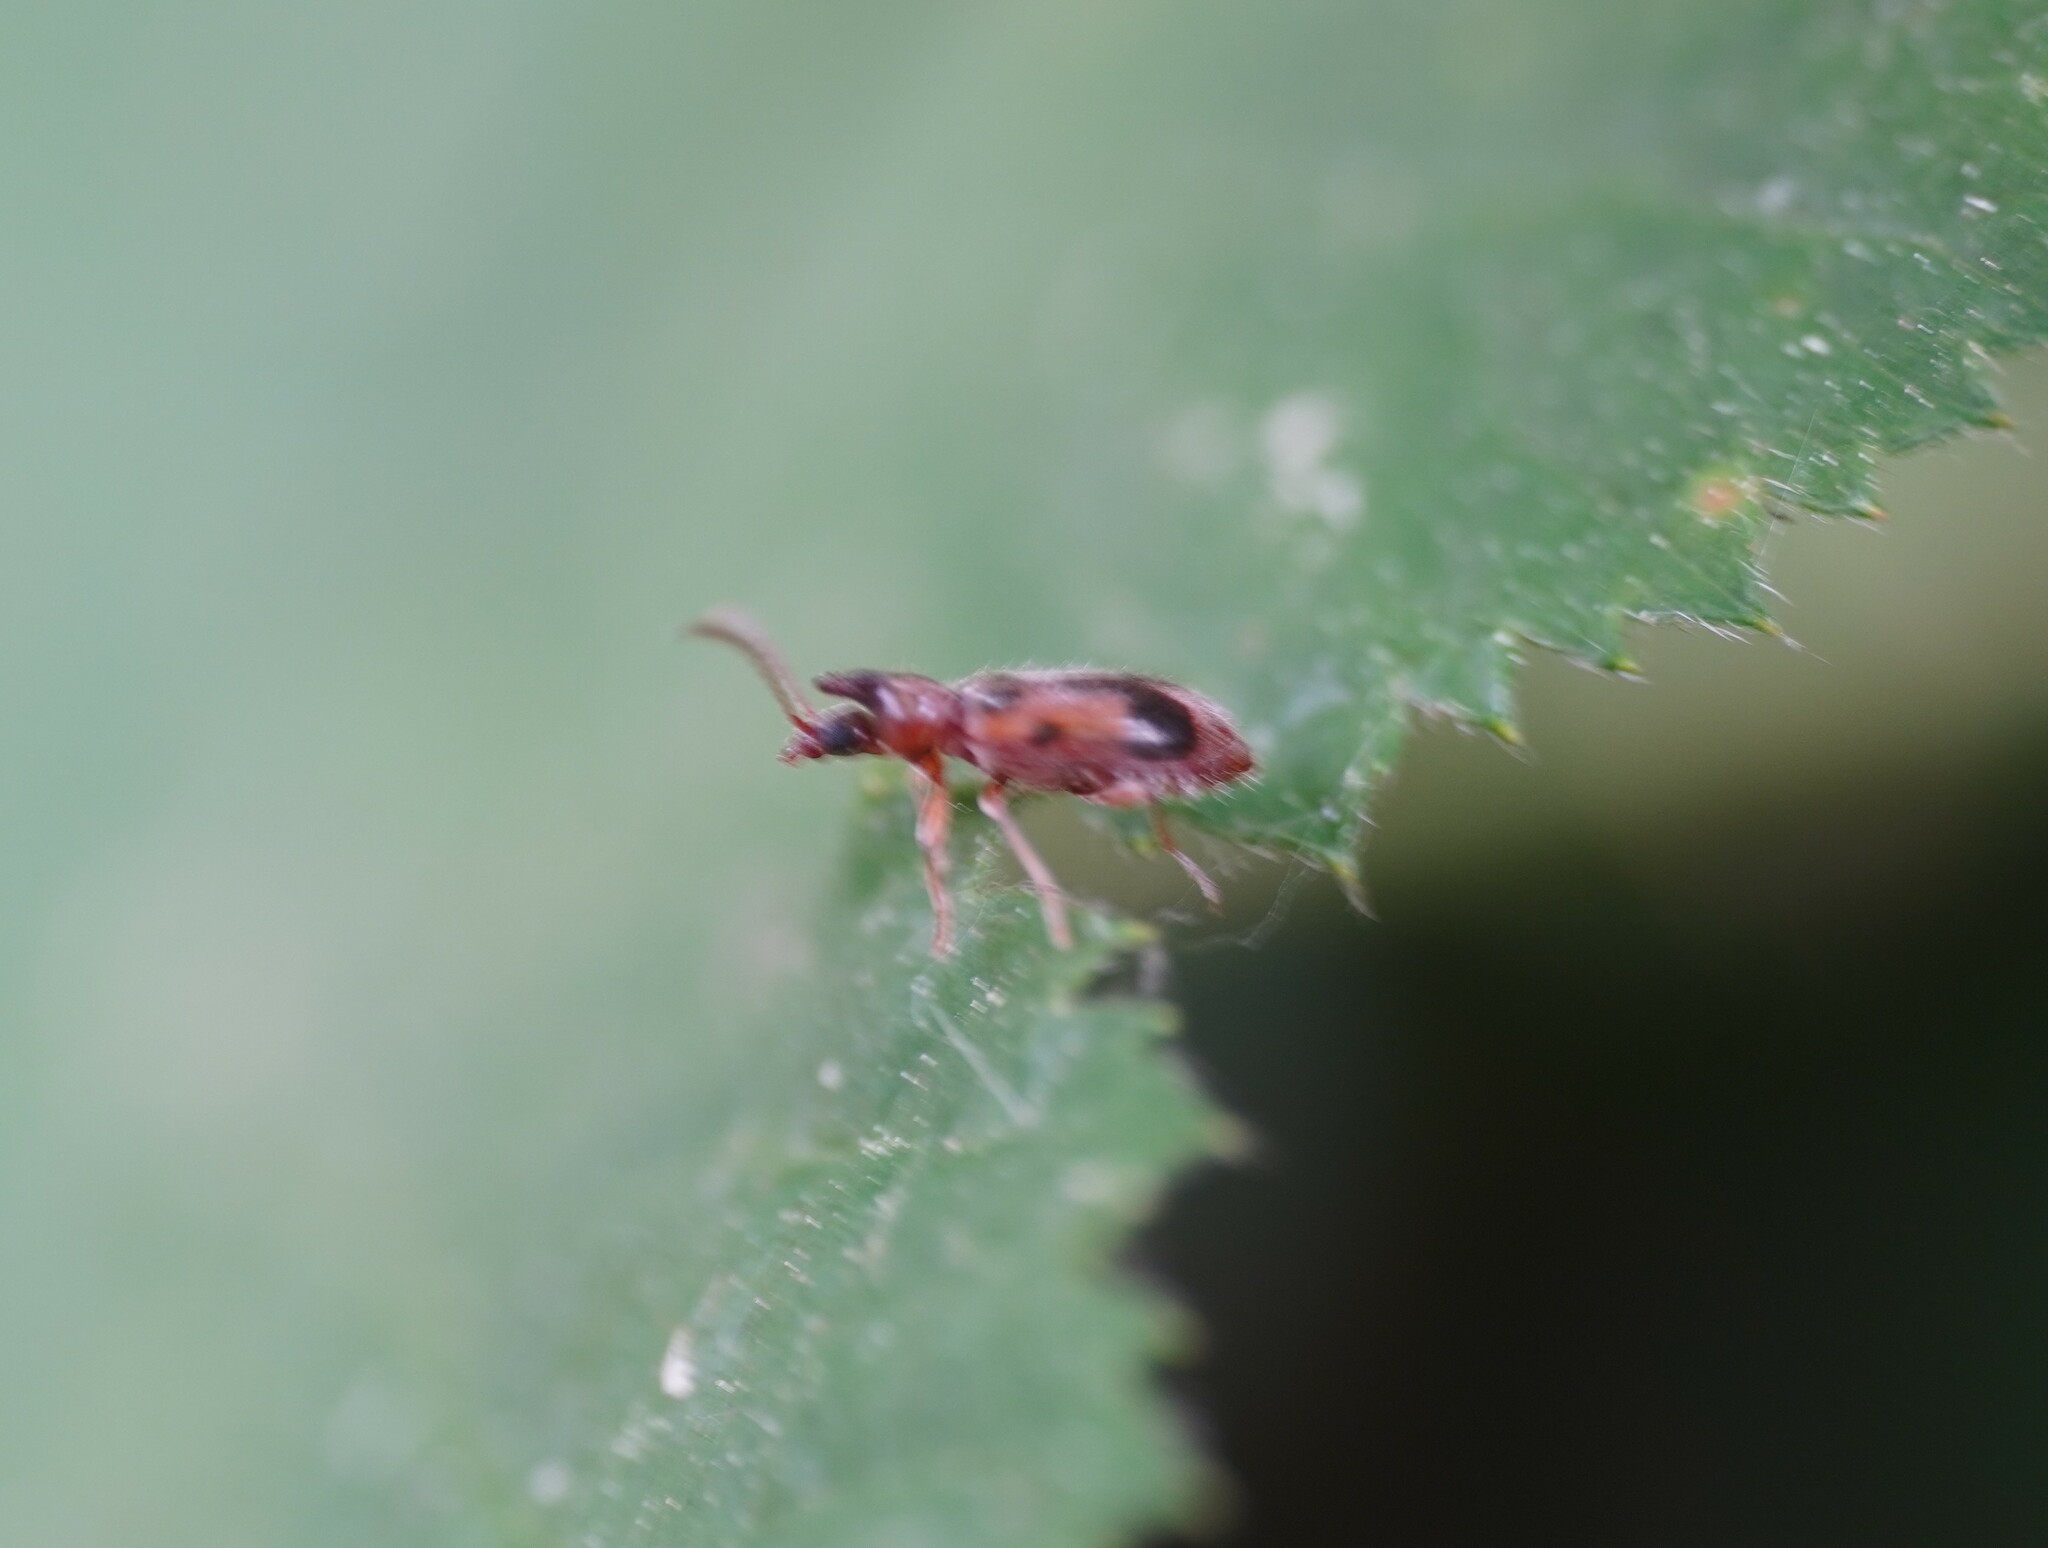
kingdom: Animalia
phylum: Arthropoda
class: Insecta
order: Coleoptera
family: Anthicidae
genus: Notoxus
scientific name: Notoxus monoceros
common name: Monoceros beetle
